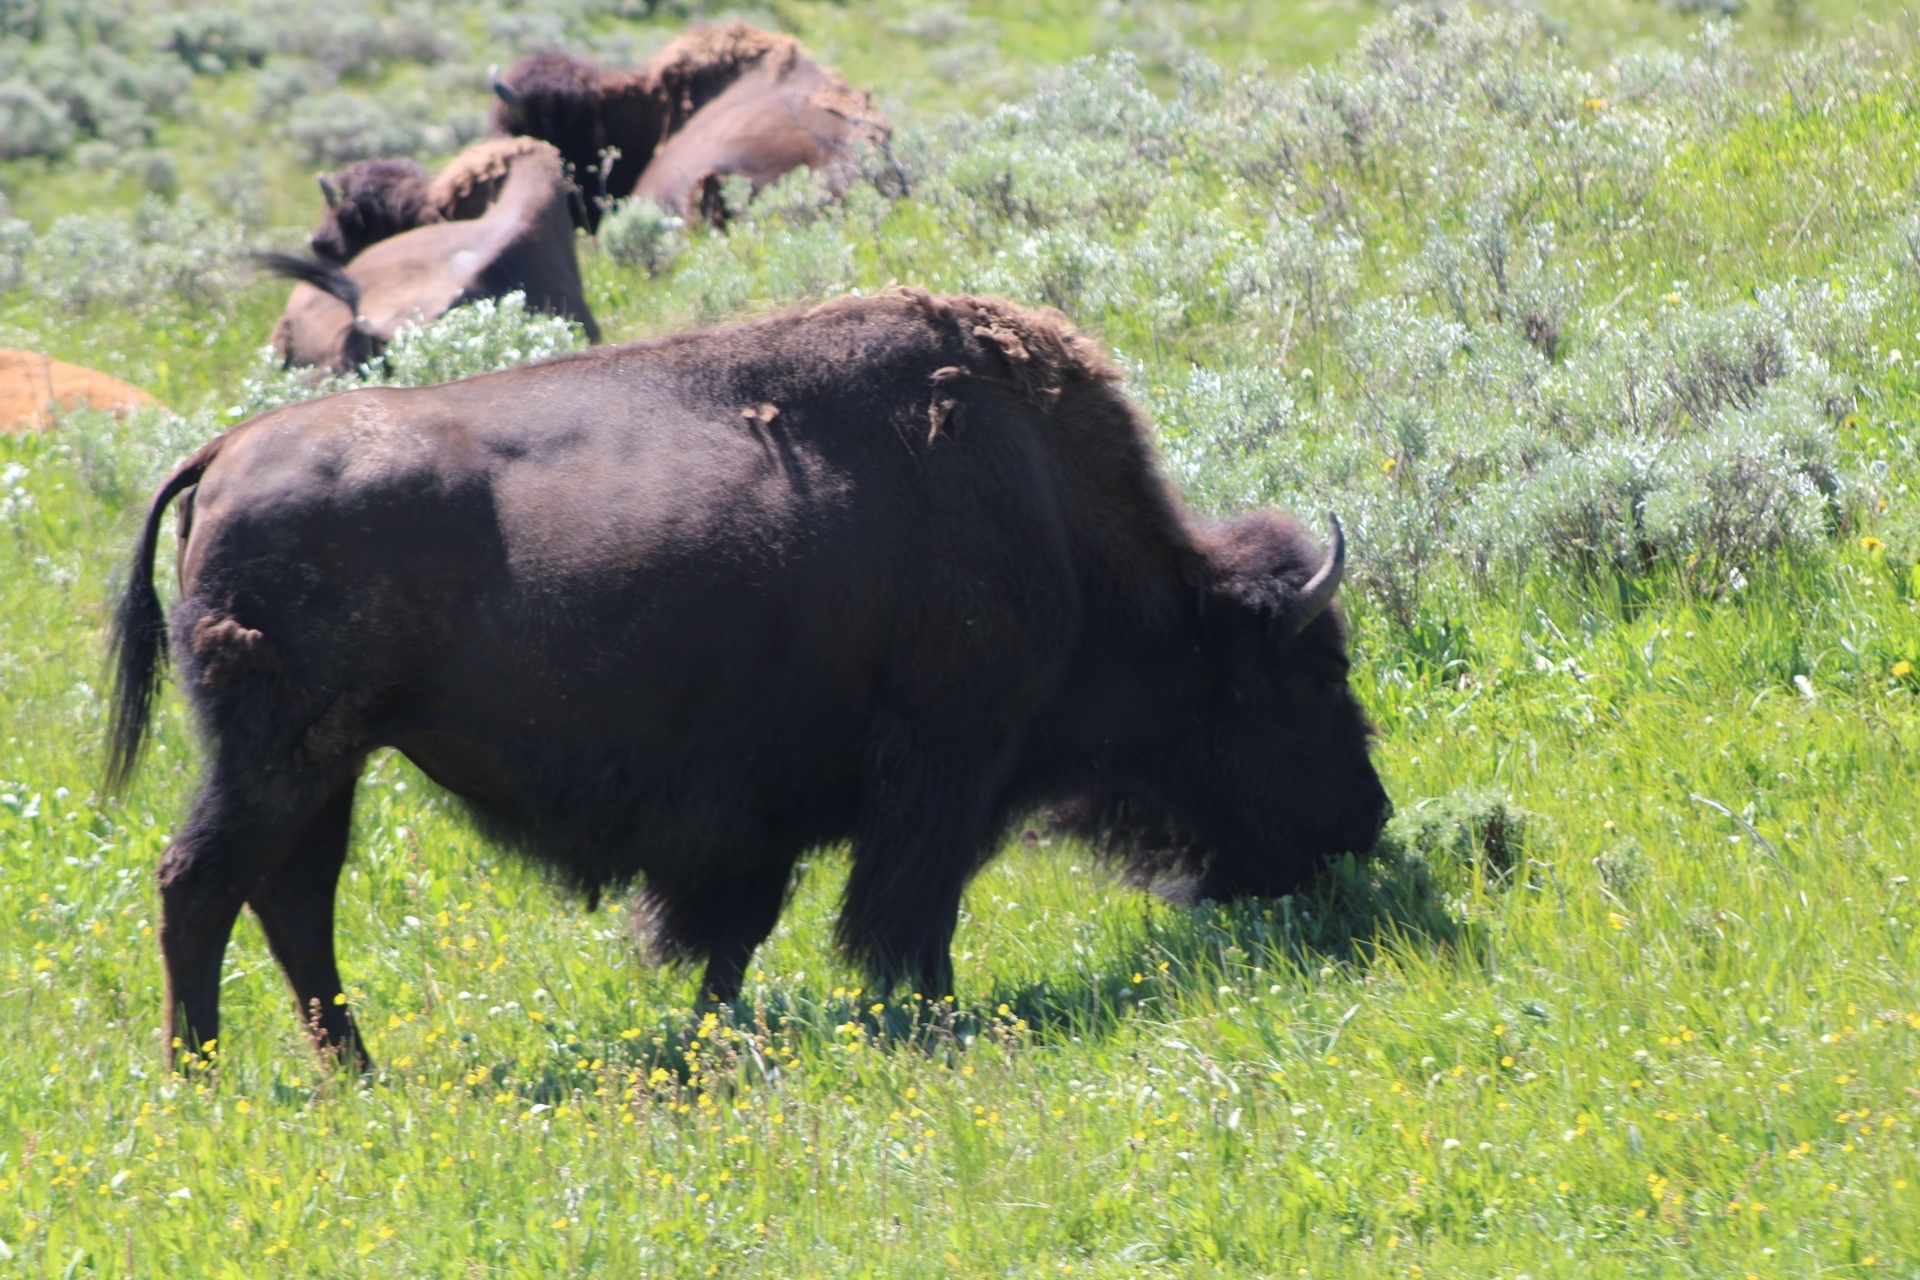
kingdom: Animalia
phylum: Chordata
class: Mammalia
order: Artiodactyla
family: Bovidae
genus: Bison
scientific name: Bison bison
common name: American bison
